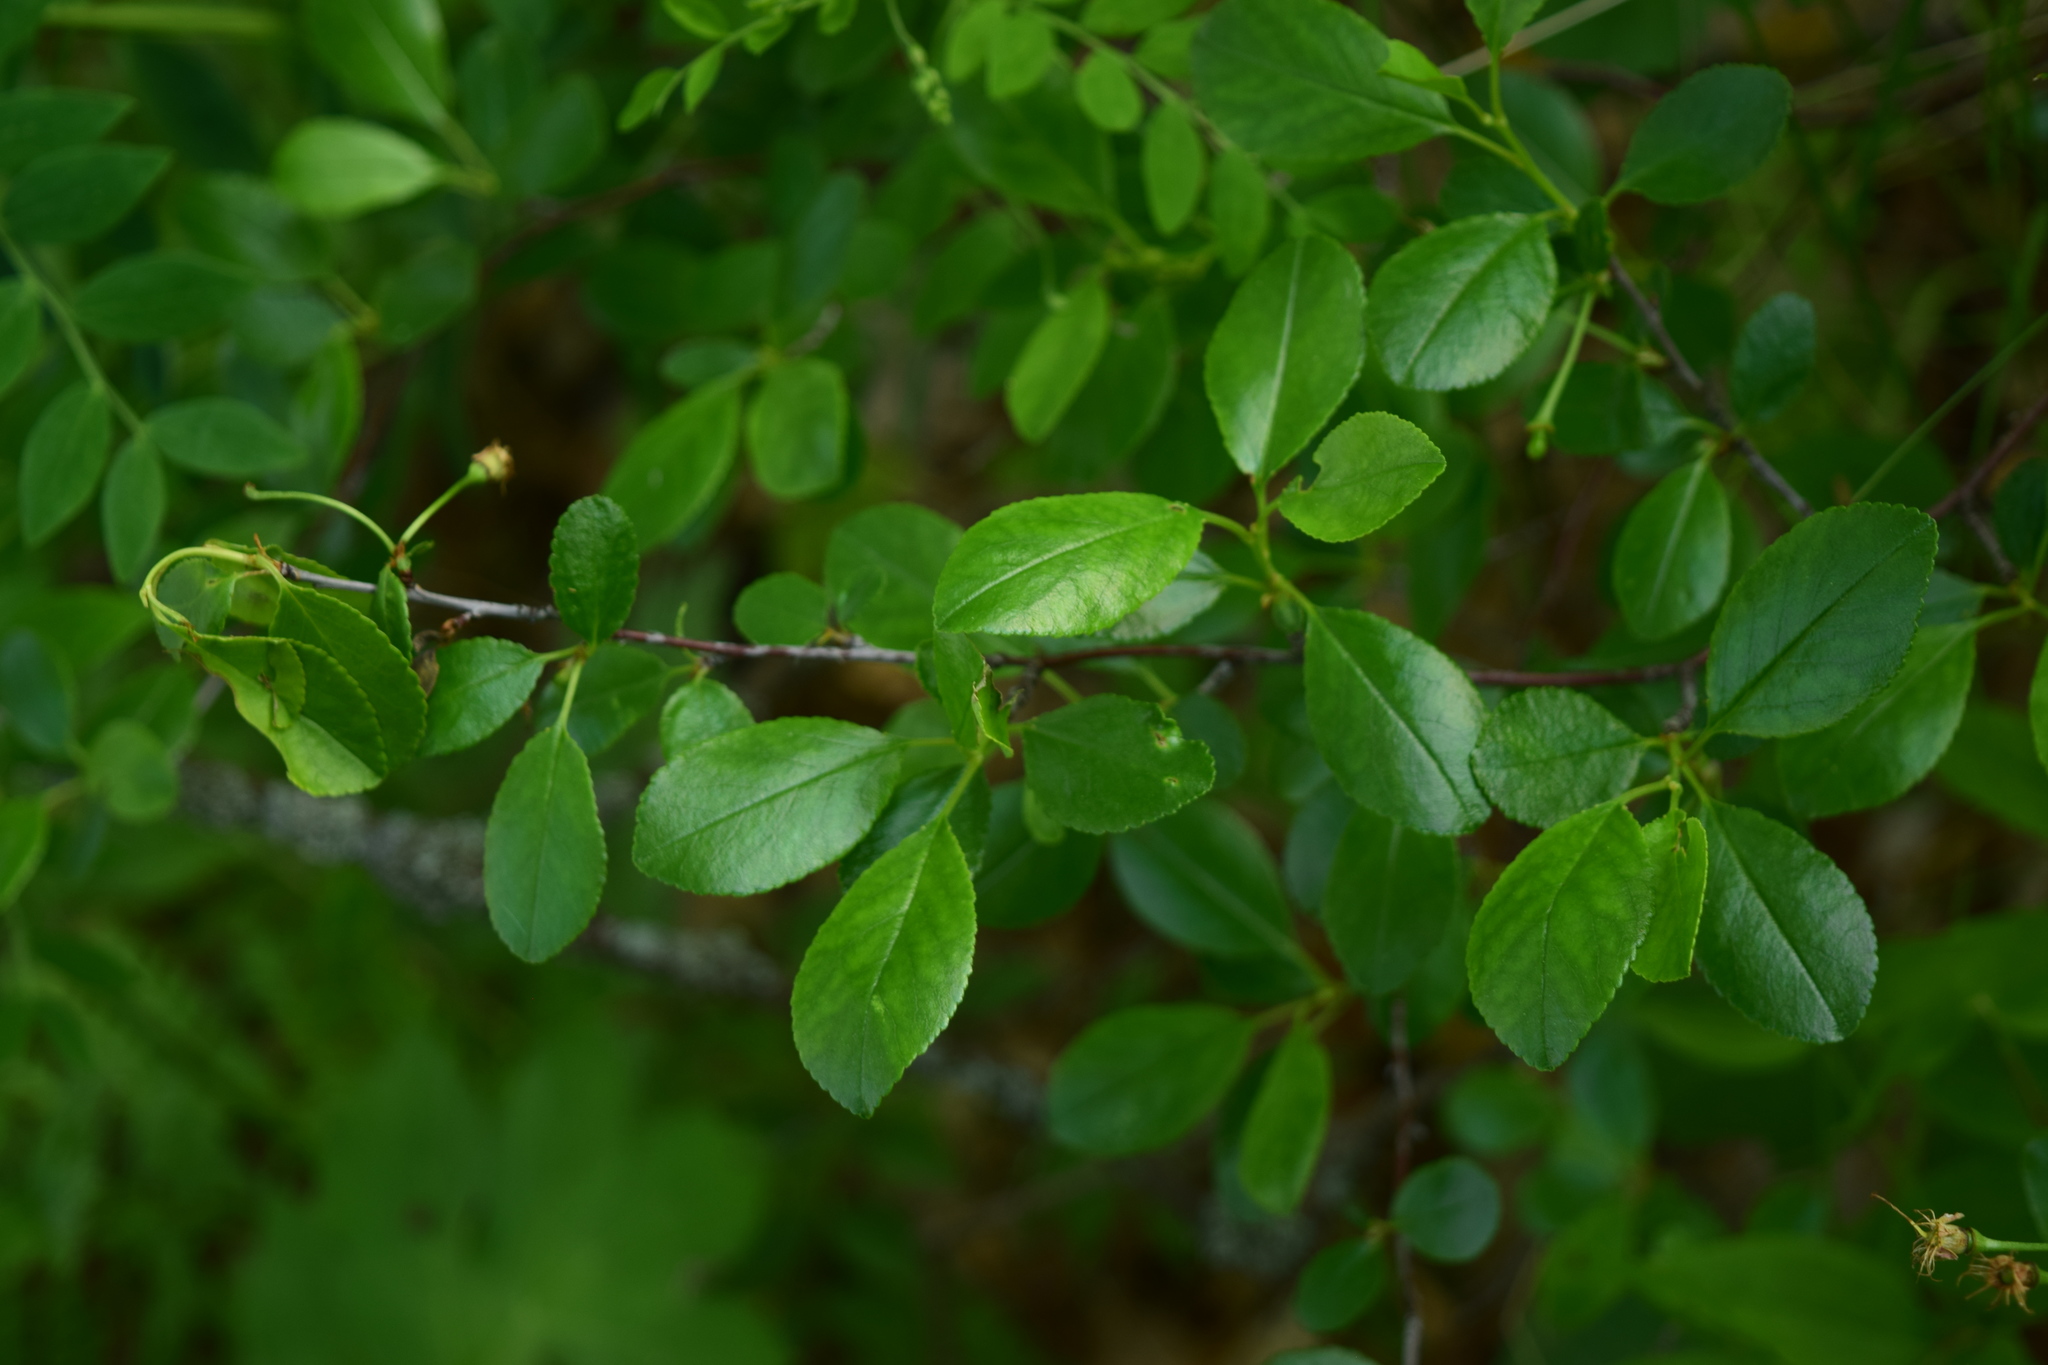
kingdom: Plantae
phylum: Tracheophyta
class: Magnoliopsida
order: Rosales
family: Rosaceae
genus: Prunus
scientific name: Prunus fruticosa
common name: European dwarf cherry
